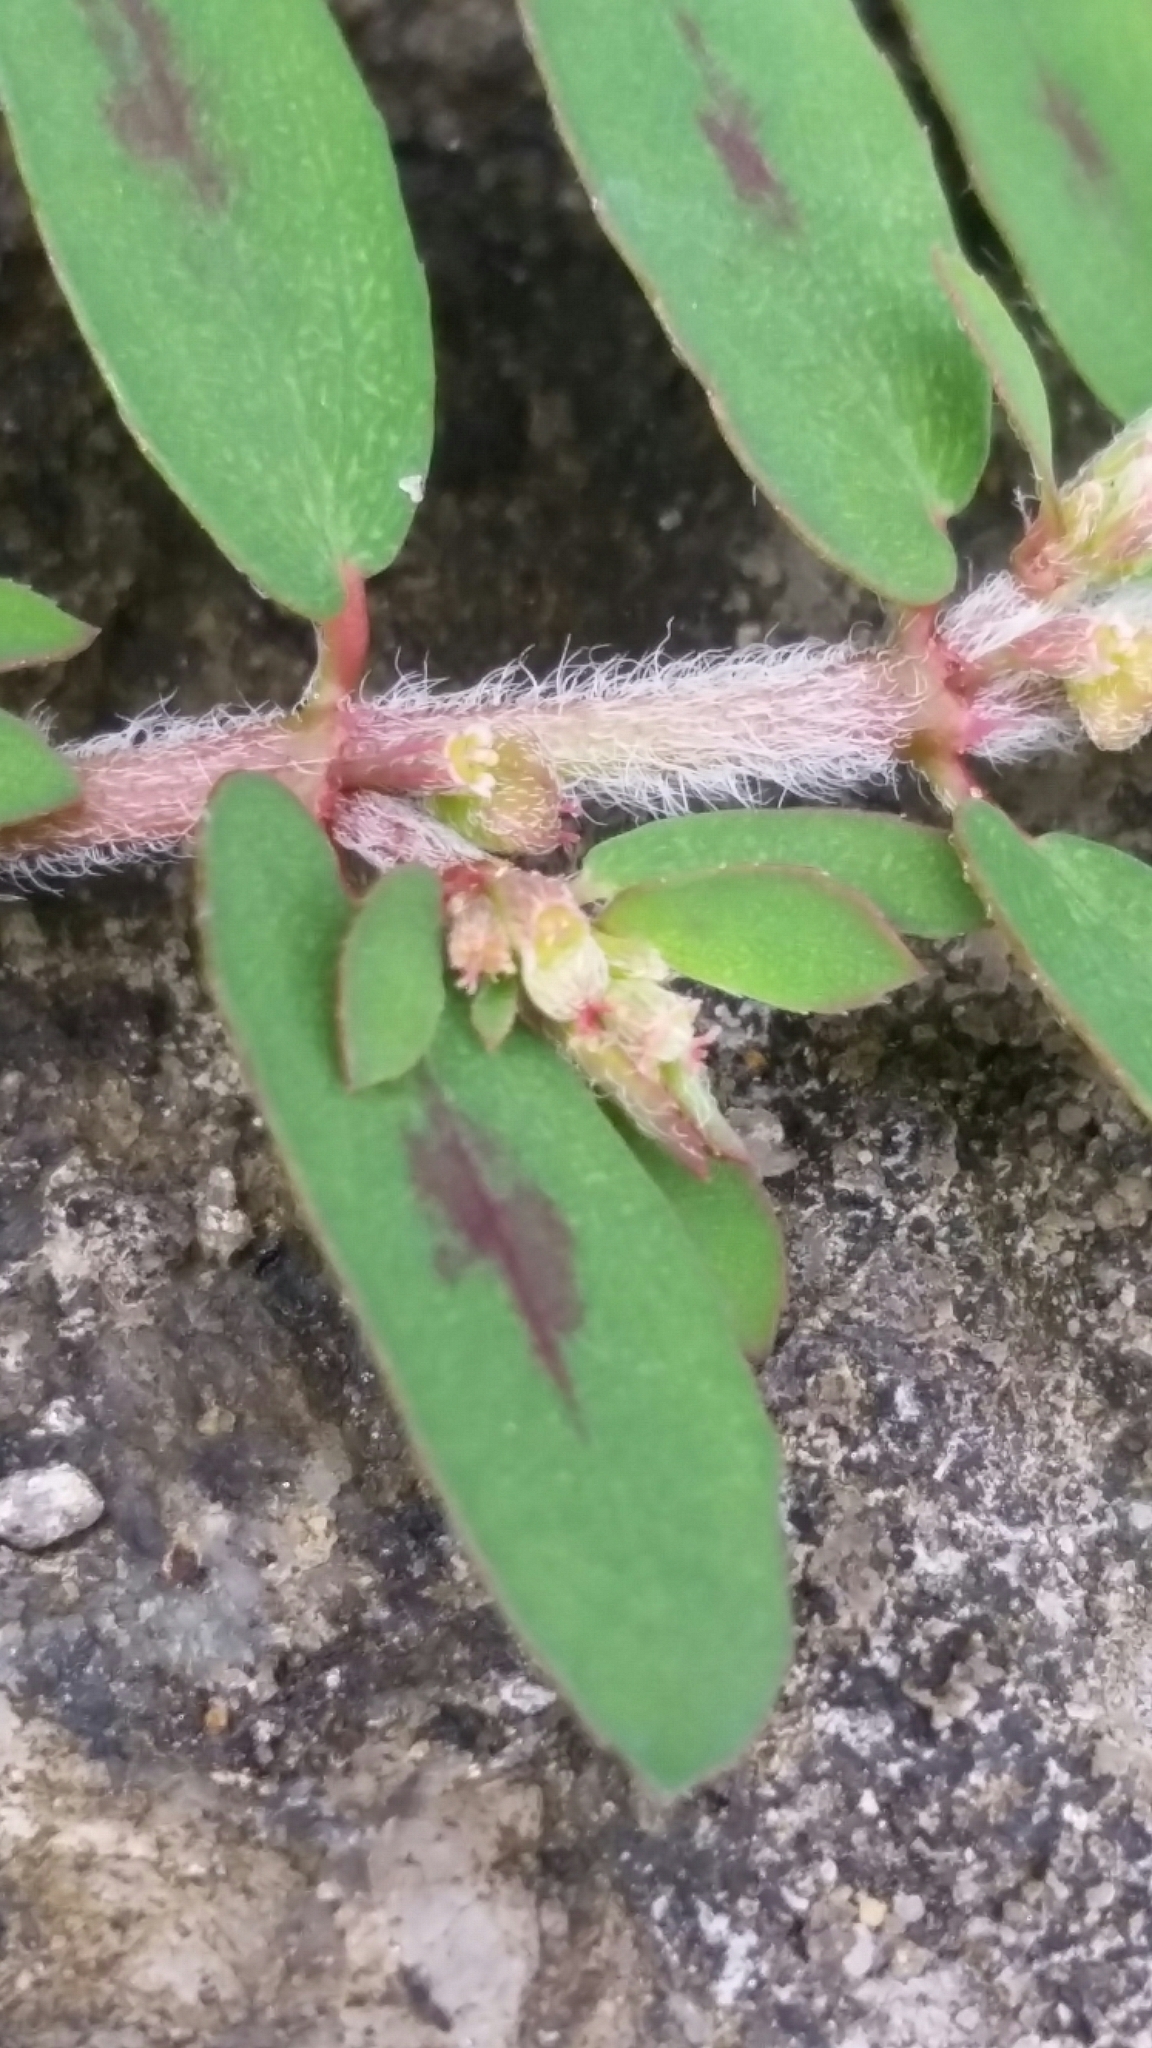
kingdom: Plantae
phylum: Tracheophyta
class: Magnoliopsida
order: Malpighiales
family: Euphorbiaceae
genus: Euphorbia
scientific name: Euphorbia maculata
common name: Spotted spurge
